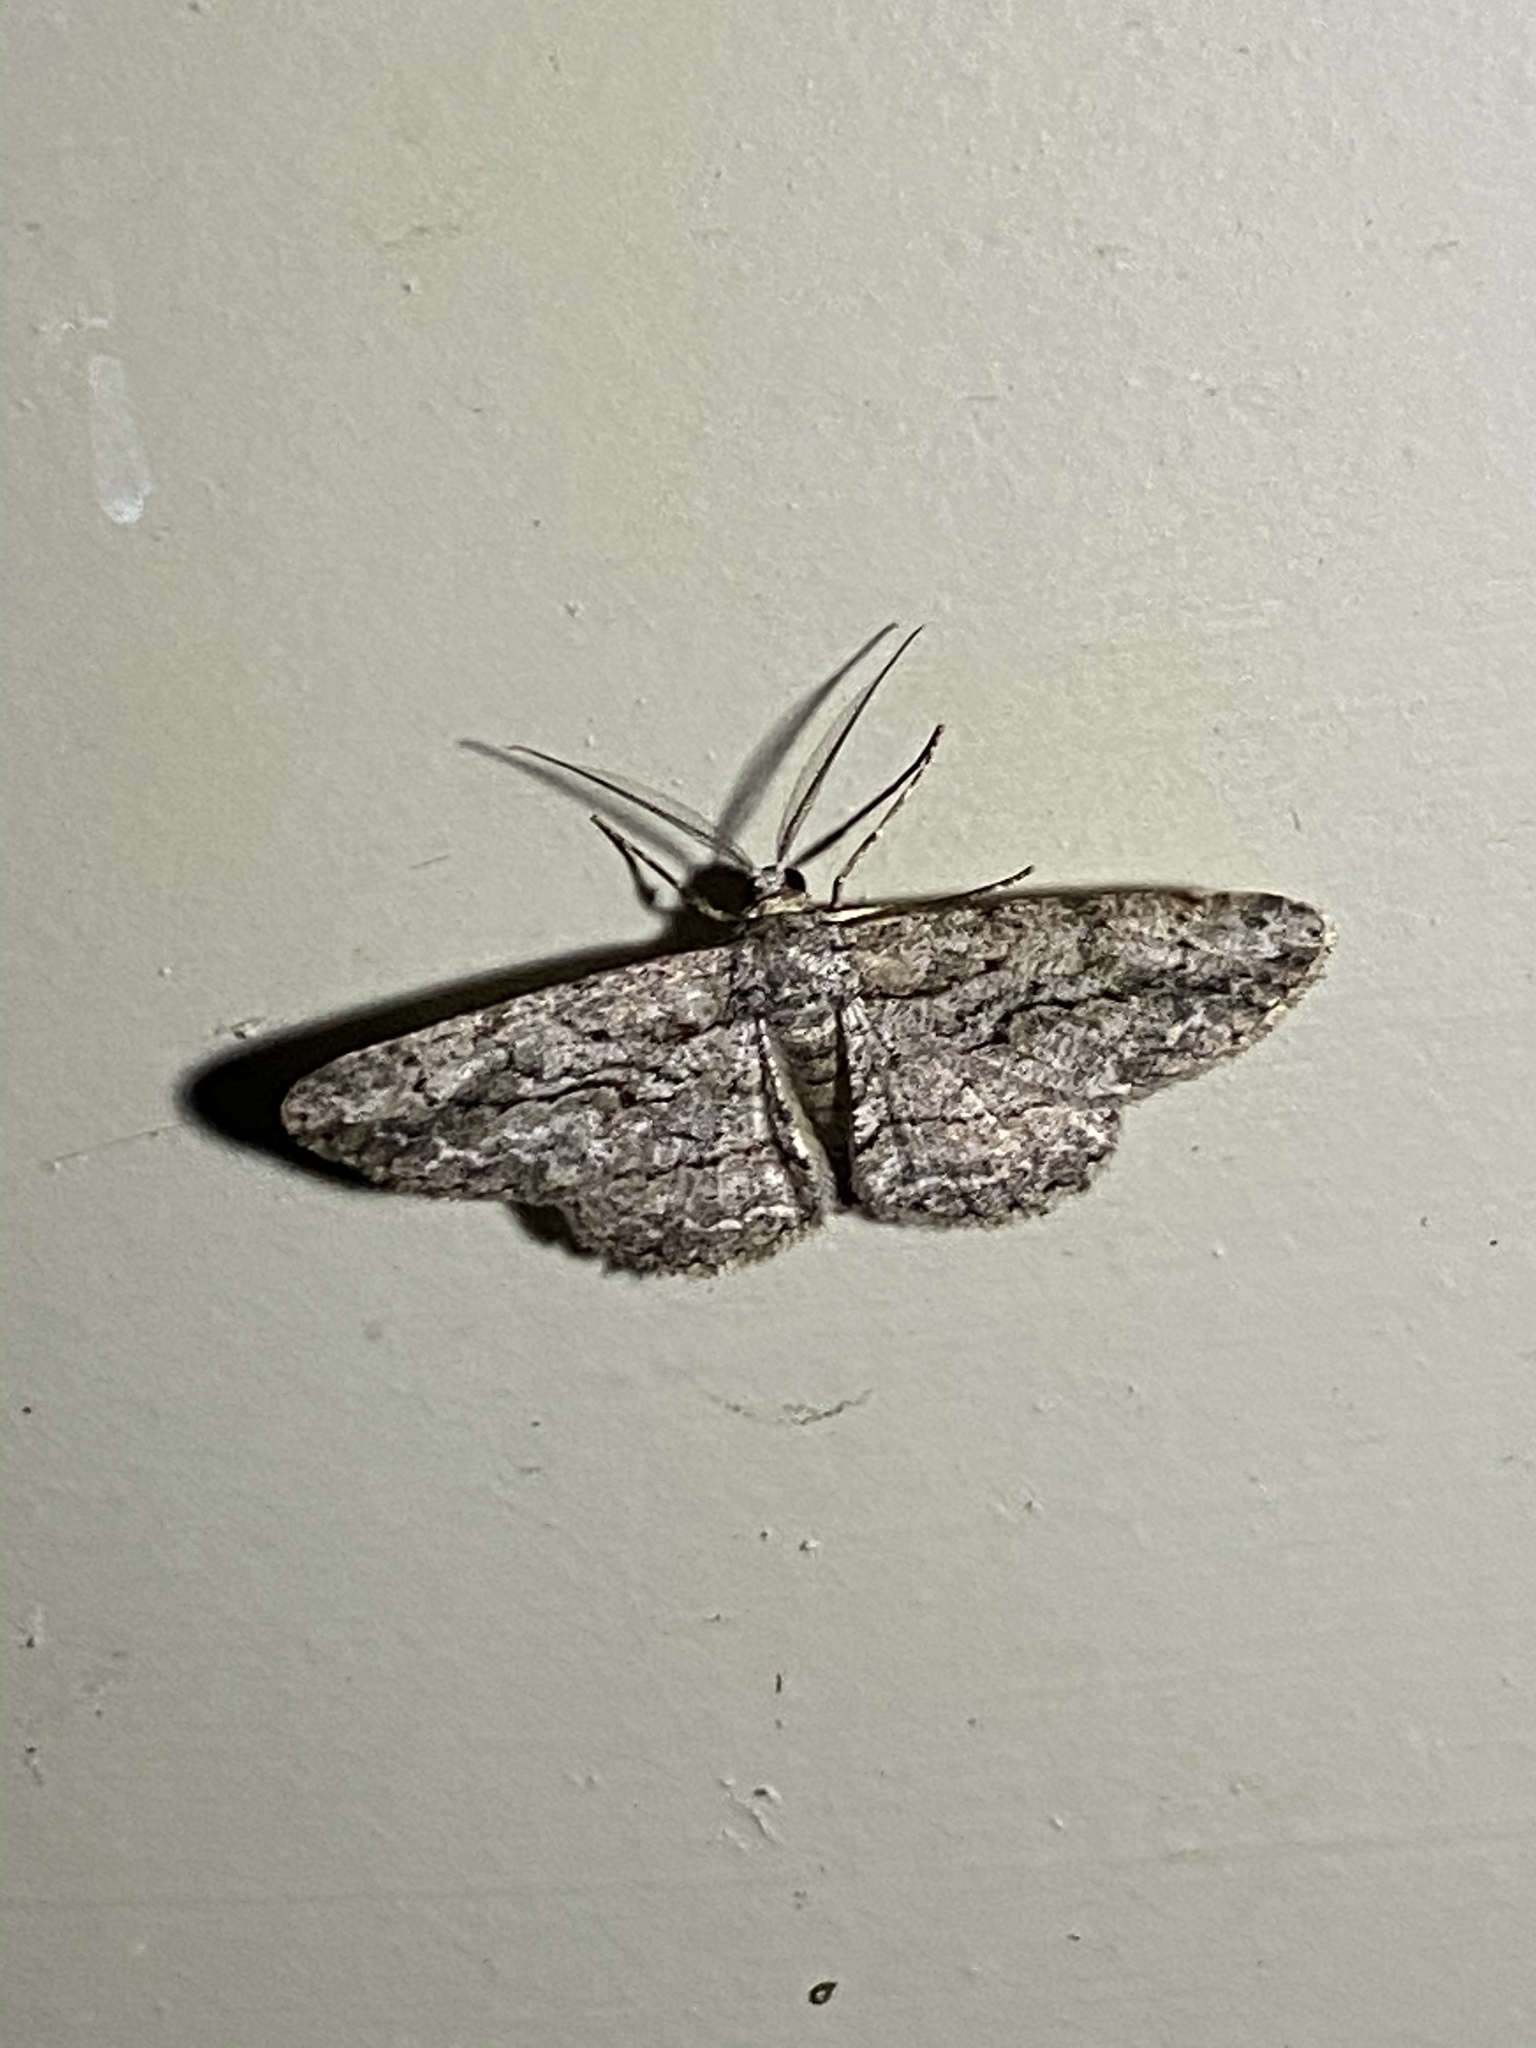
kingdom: Animalia
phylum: Arthropoda
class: Insecta
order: Lepidoptera
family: Geometridae
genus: Anavitrinella
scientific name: Anavitrinella pampinaria
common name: Common gray
